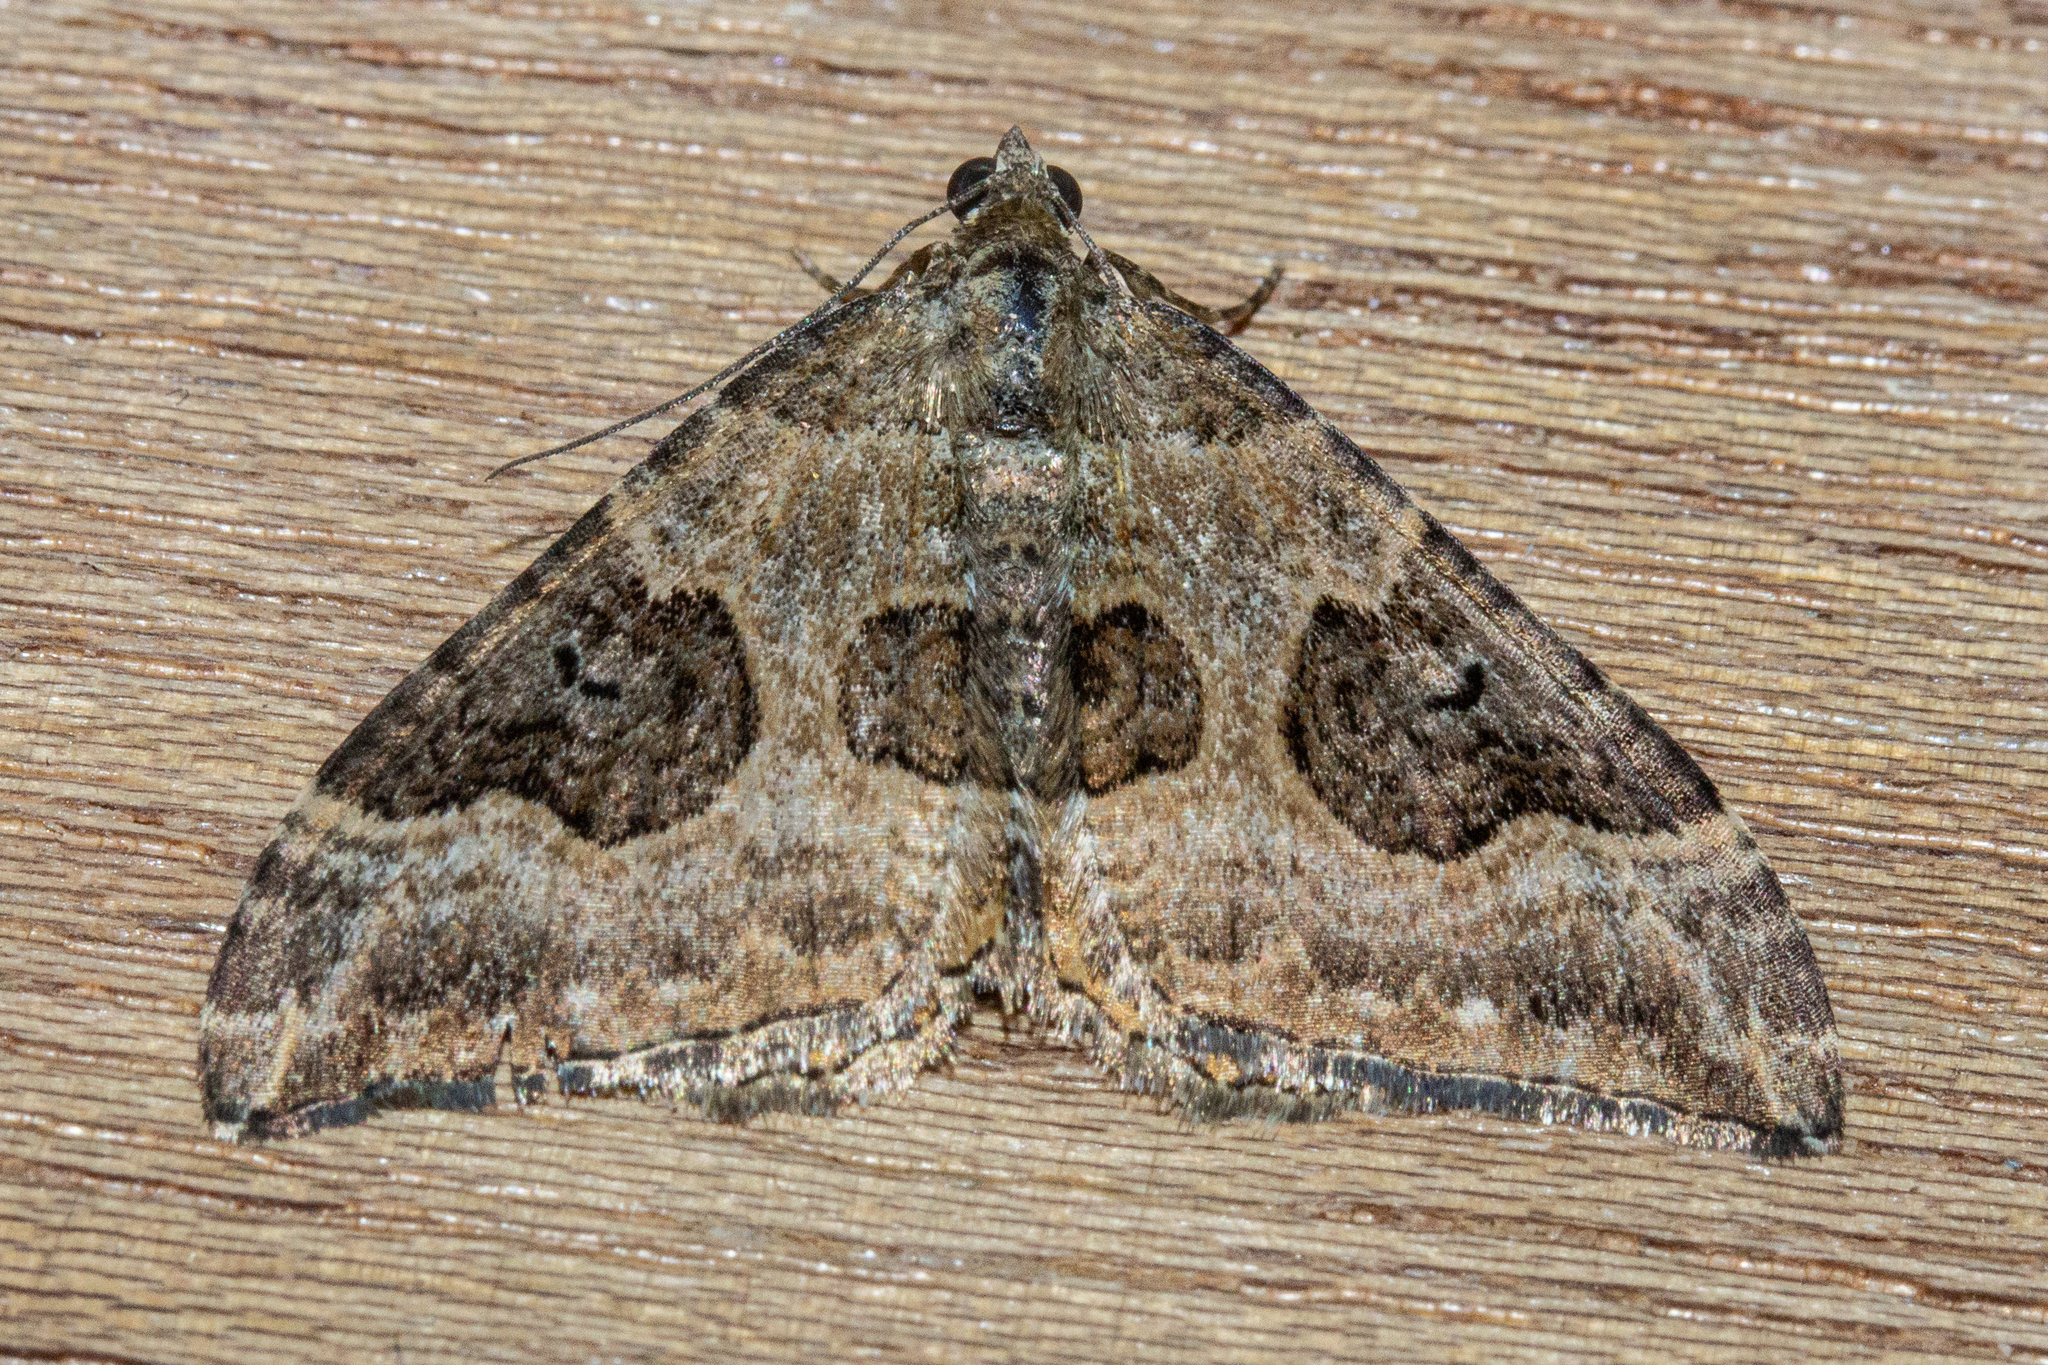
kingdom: Animalia
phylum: Arthropoda
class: Insecta
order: Lepidoptera
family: Geometridae
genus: Hydriomena
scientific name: Hydriomena deltoidata
